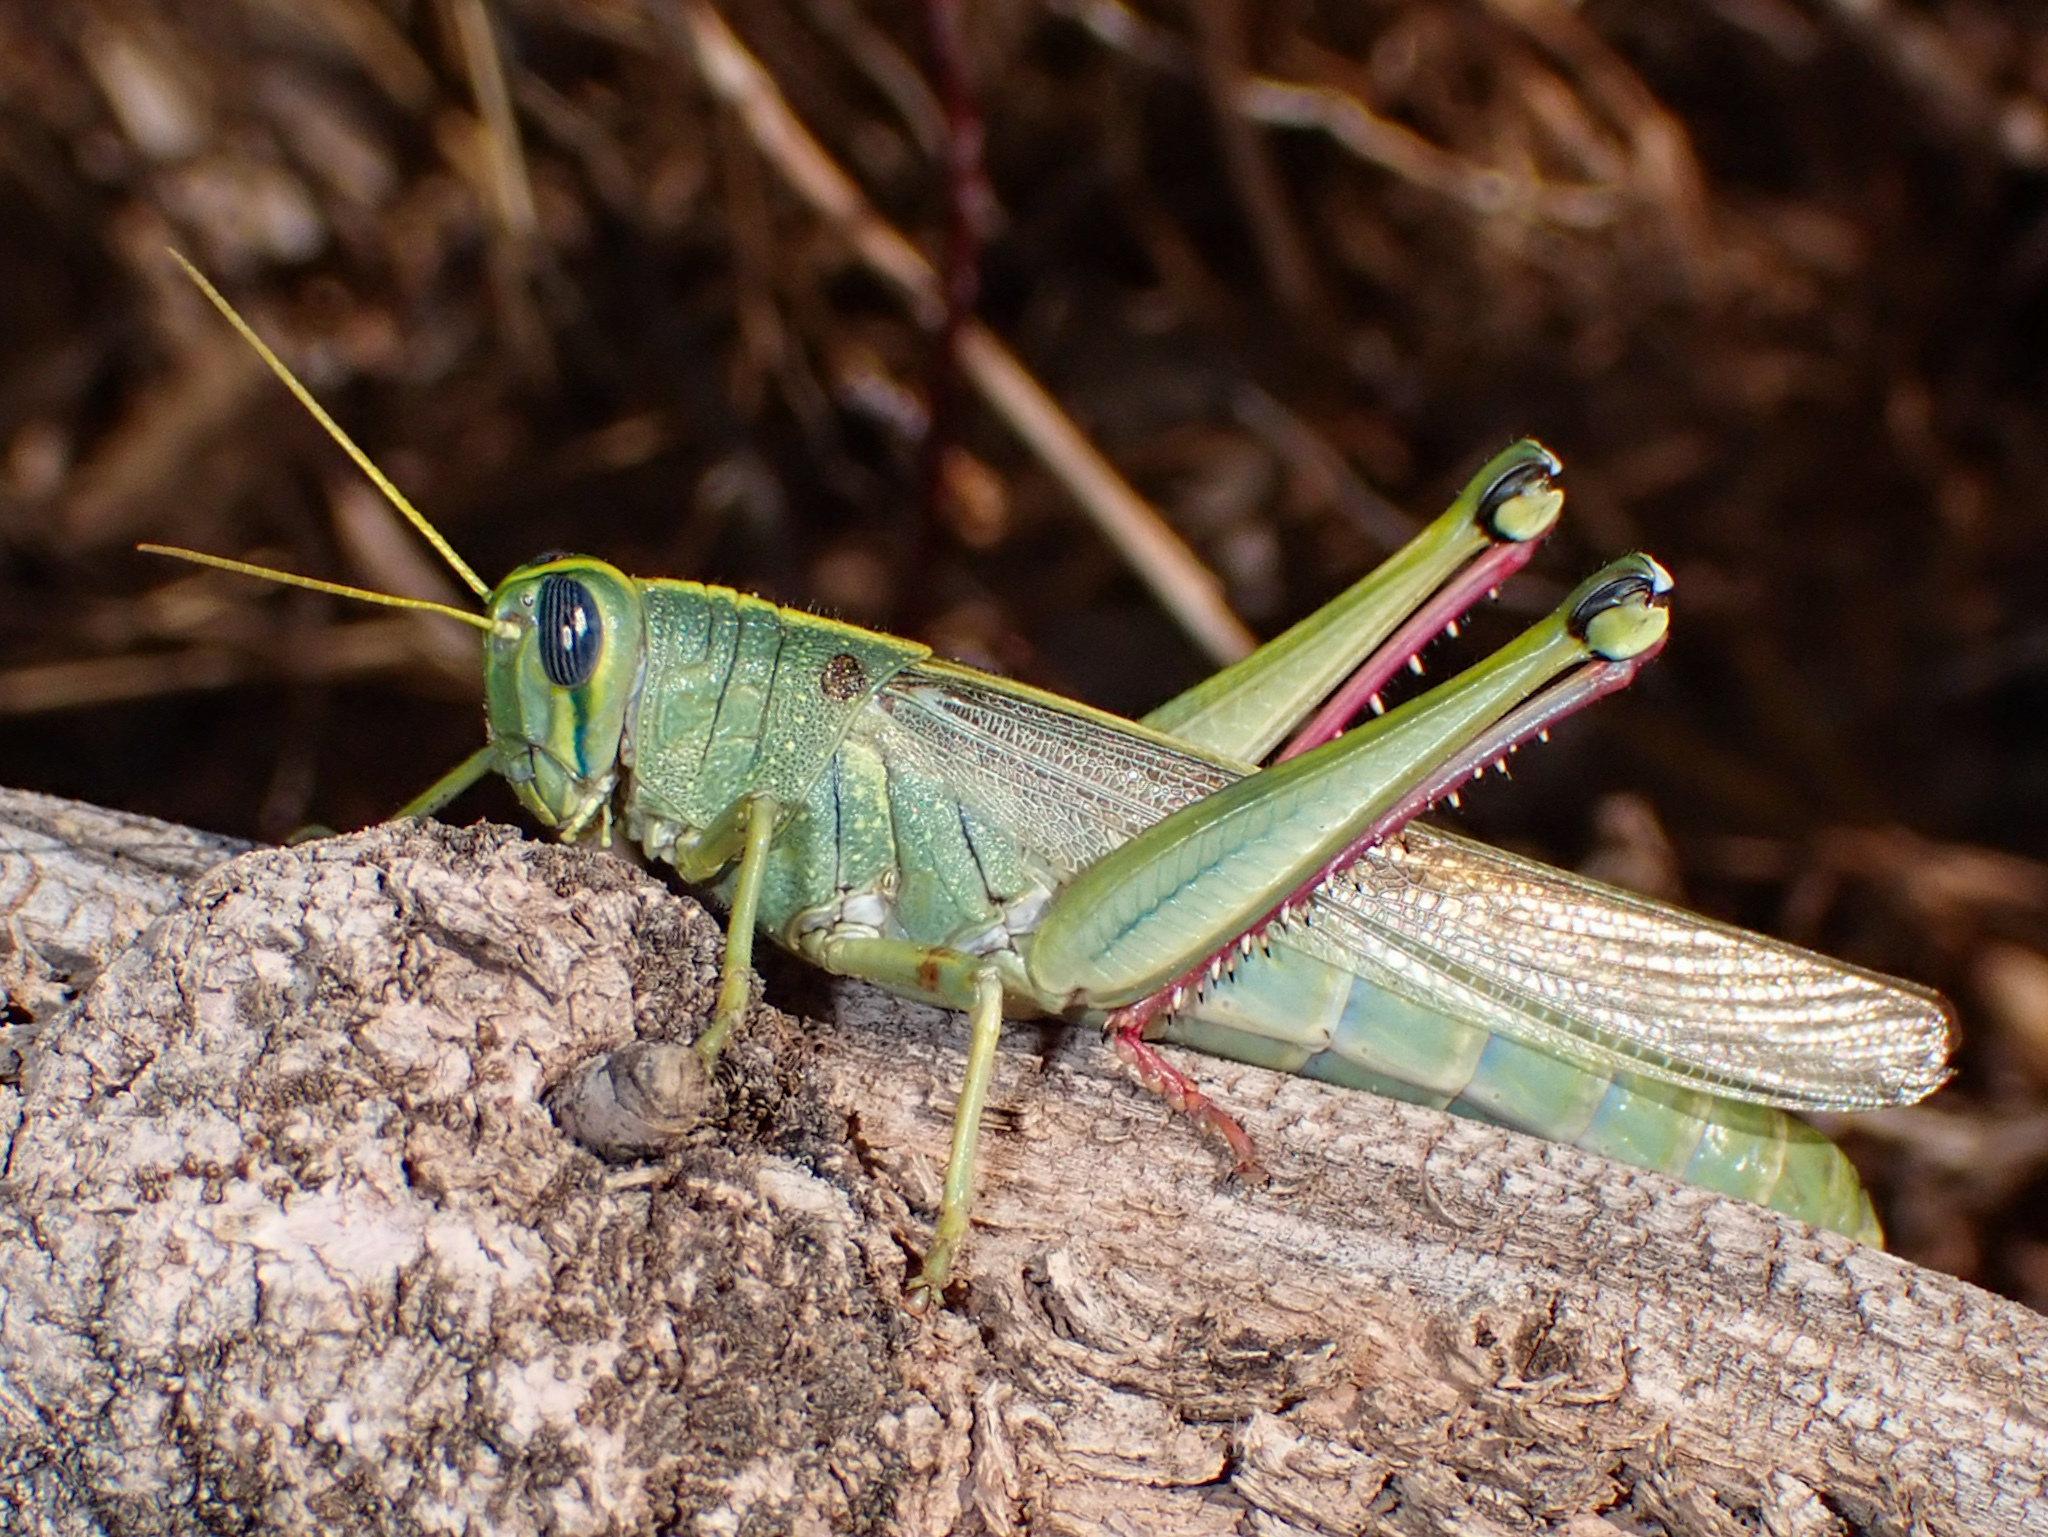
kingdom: Animalia
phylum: Arthropoda
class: Insecta
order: Orthoptera
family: Acrididae
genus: Schistocerca
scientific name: Schistocerca lineata
